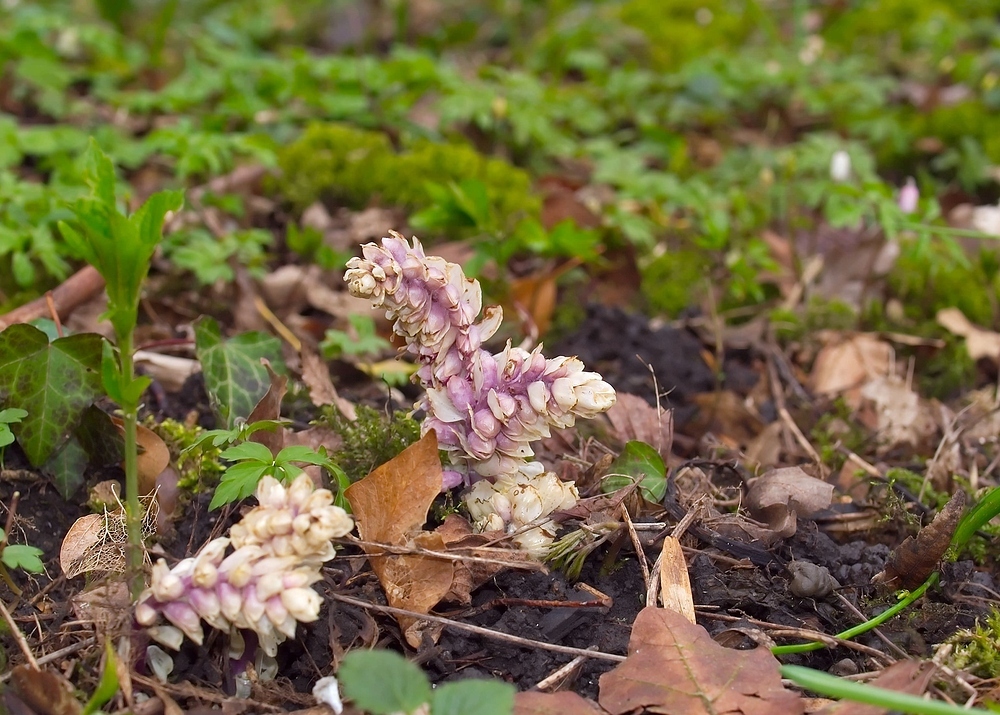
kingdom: Plantae
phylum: Tracheophyta
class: Magnoliopsida
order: Lamiales
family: Orobanchaceae
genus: Lathraea
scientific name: Lathraea squamaria
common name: Toothwort
